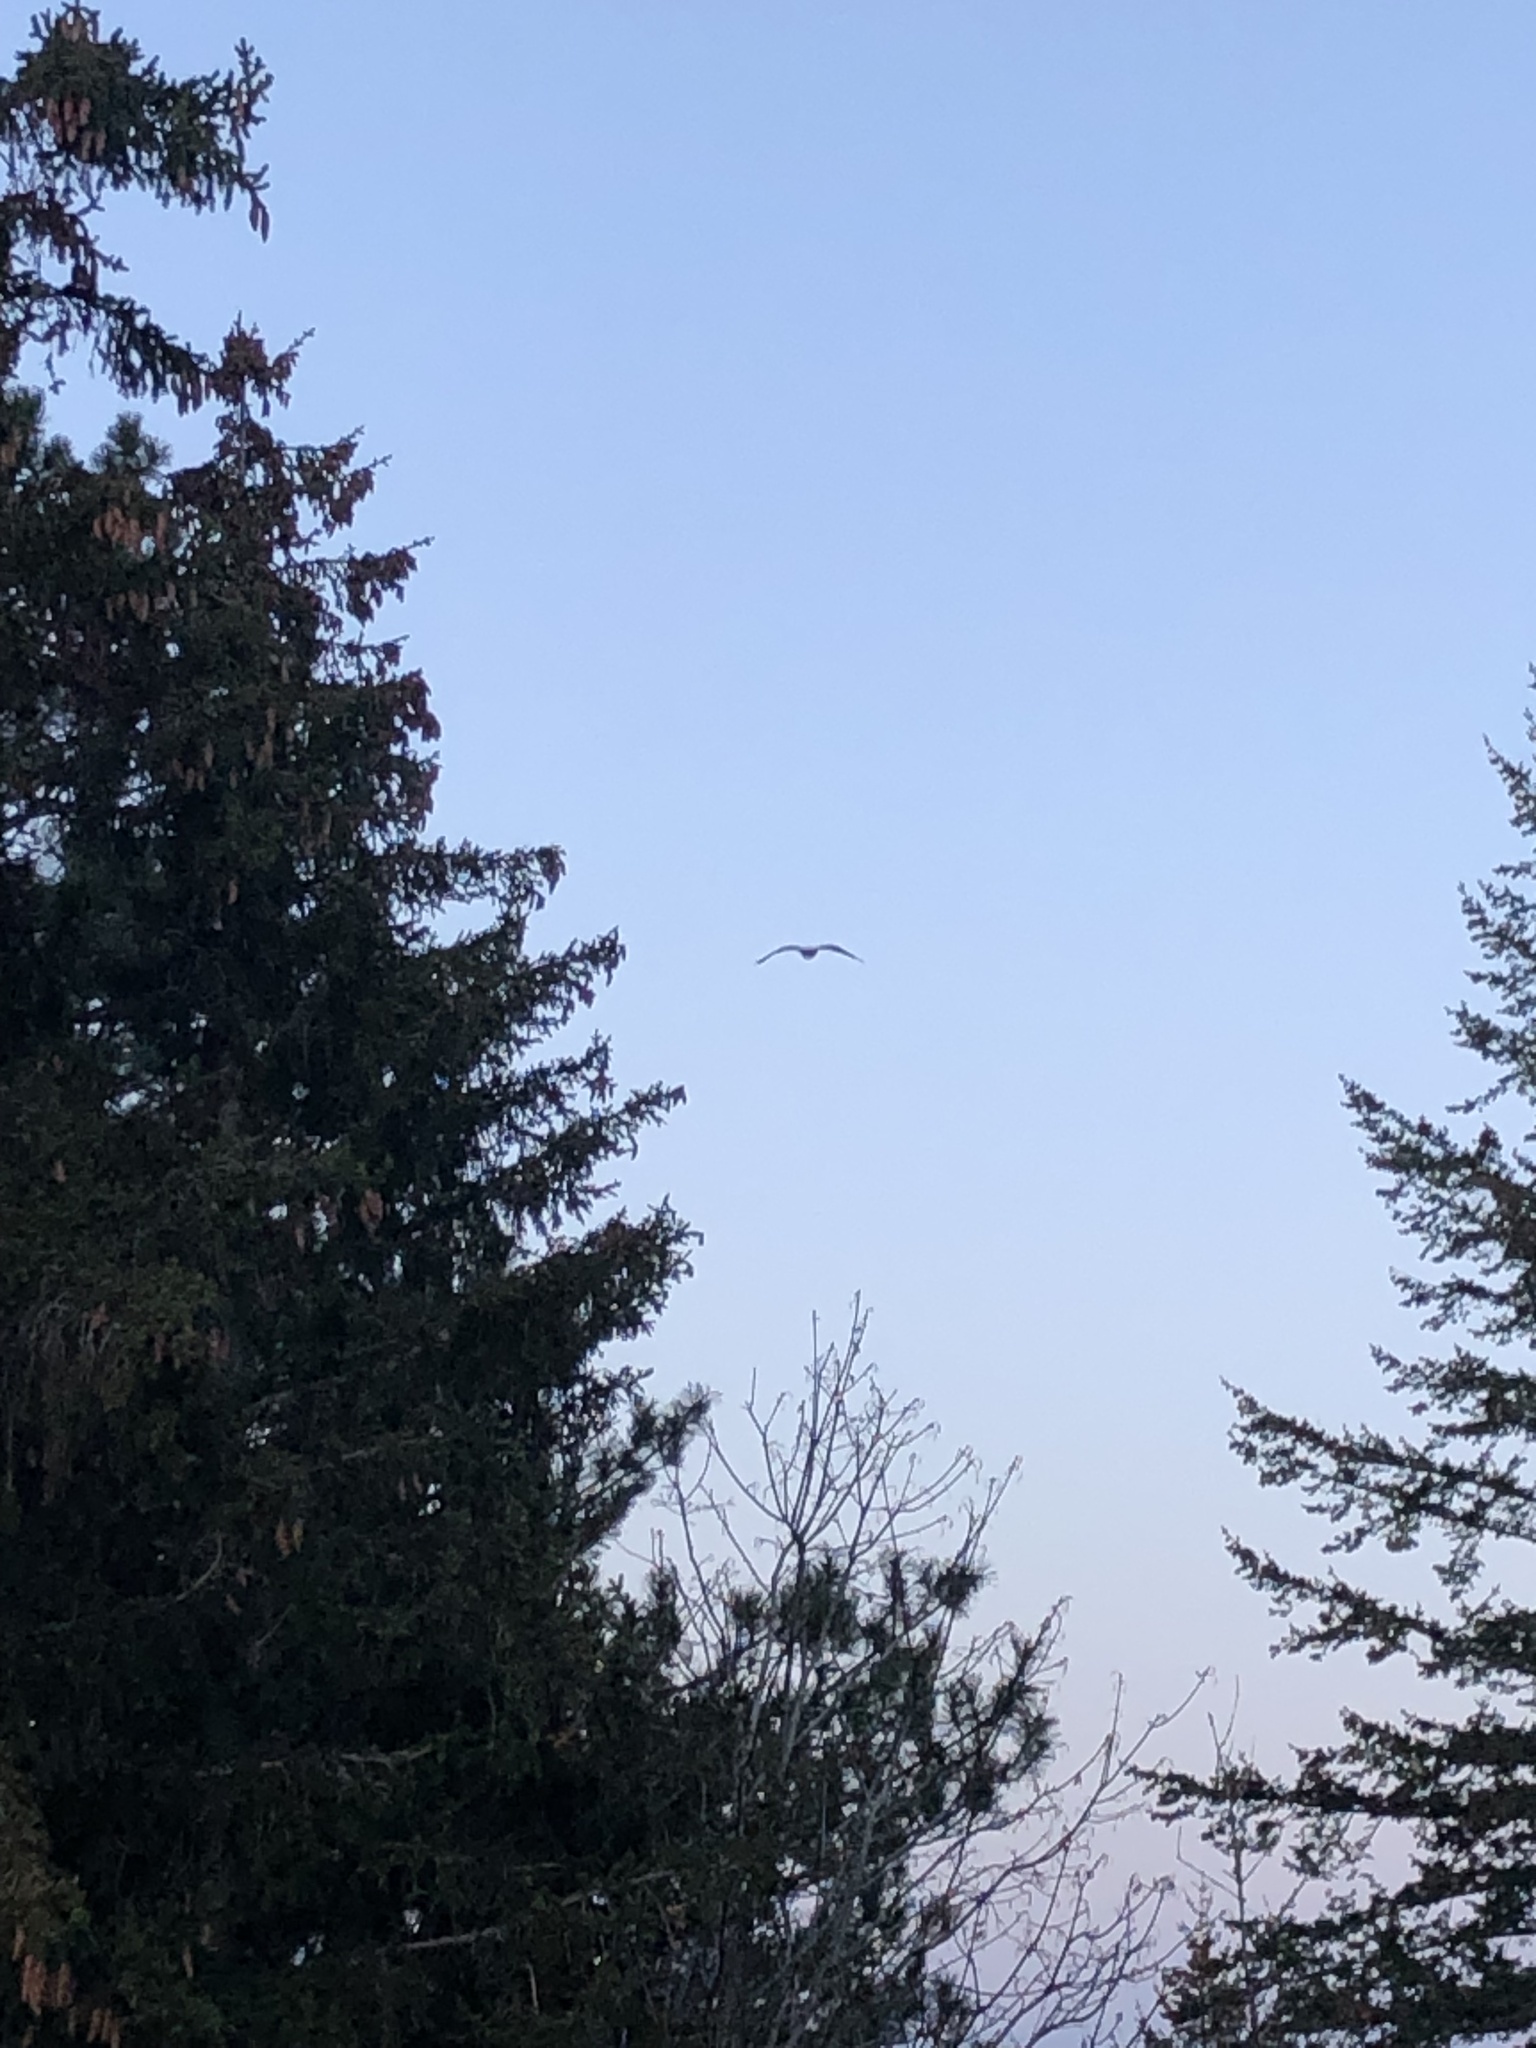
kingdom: Animalia
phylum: Chordata
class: Aves
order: Accipitriformes
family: Accipitridae
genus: Haliaeetus
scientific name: Haliaeetus leucocephalus
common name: Bald eagle
